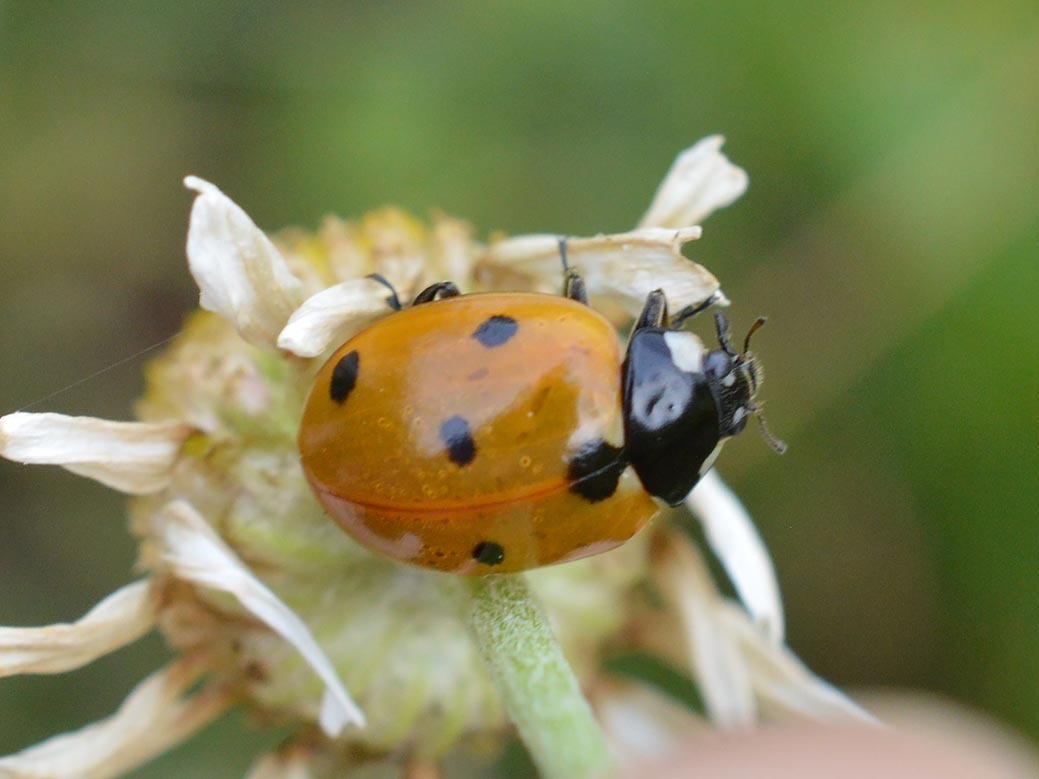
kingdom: Animalia
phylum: Arthropoda
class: Insecta
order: Coleoptera
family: Coccinellidae
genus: Coccinella
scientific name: Coccinella septempunctata
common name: Sevenspotted lady beetle
